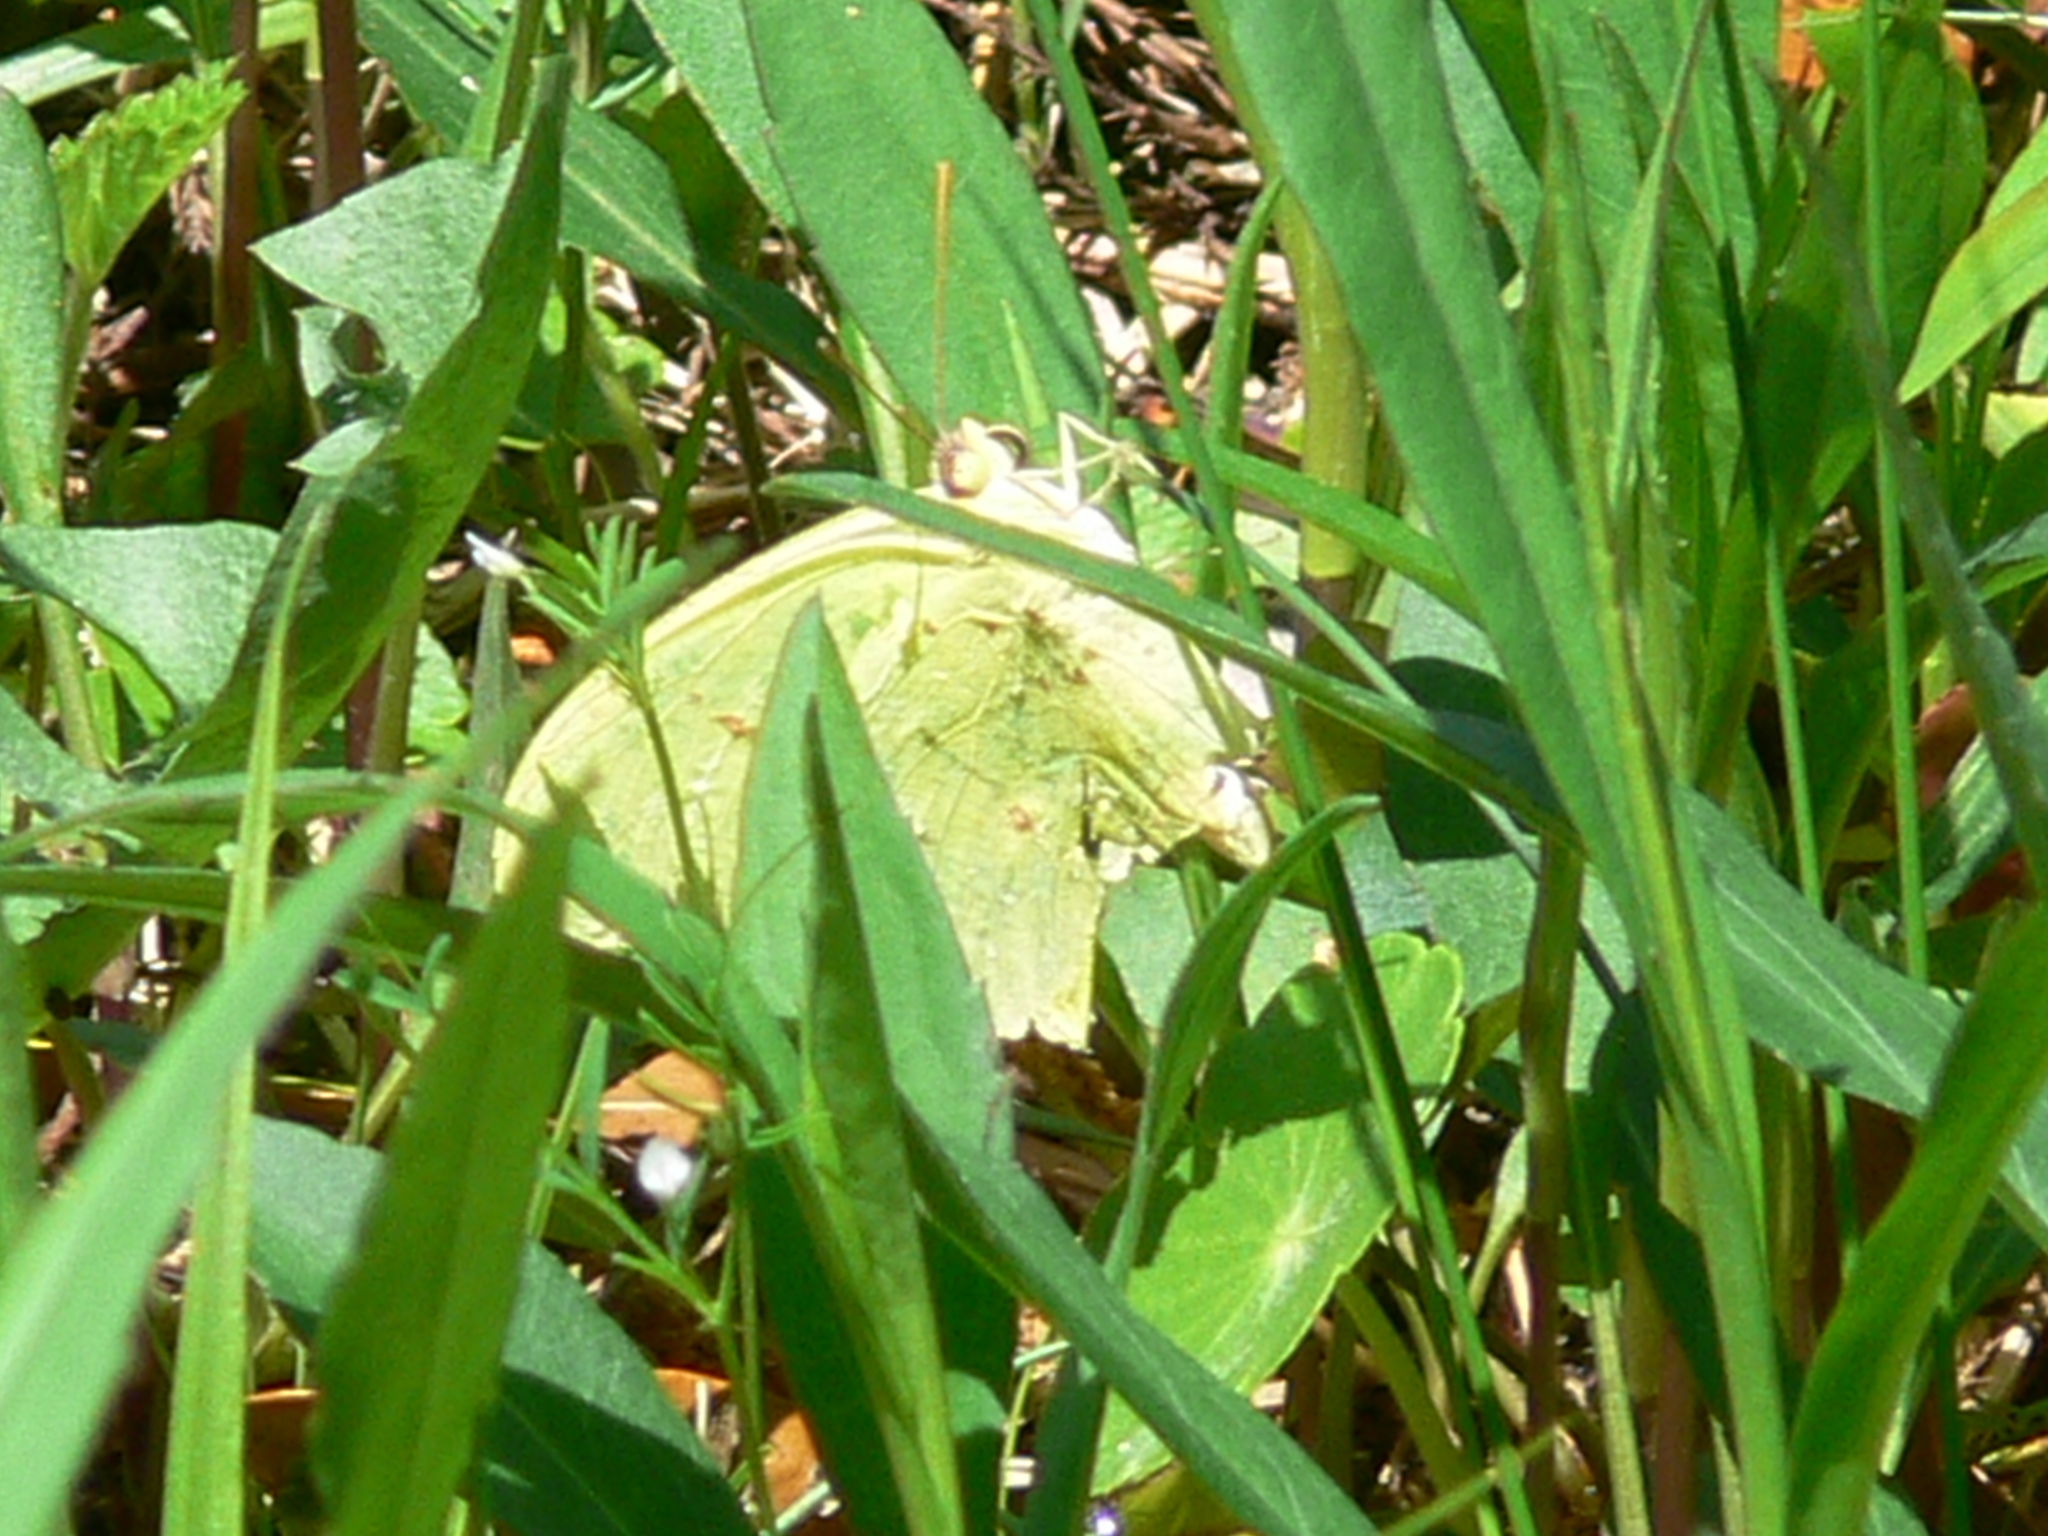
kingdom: Animalia
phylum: Arthropoda
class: Insecta
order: Lepidoptera
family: Pieridae
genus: Phoebis
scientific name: Phoebis sennae
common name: Cloudless sulphur
